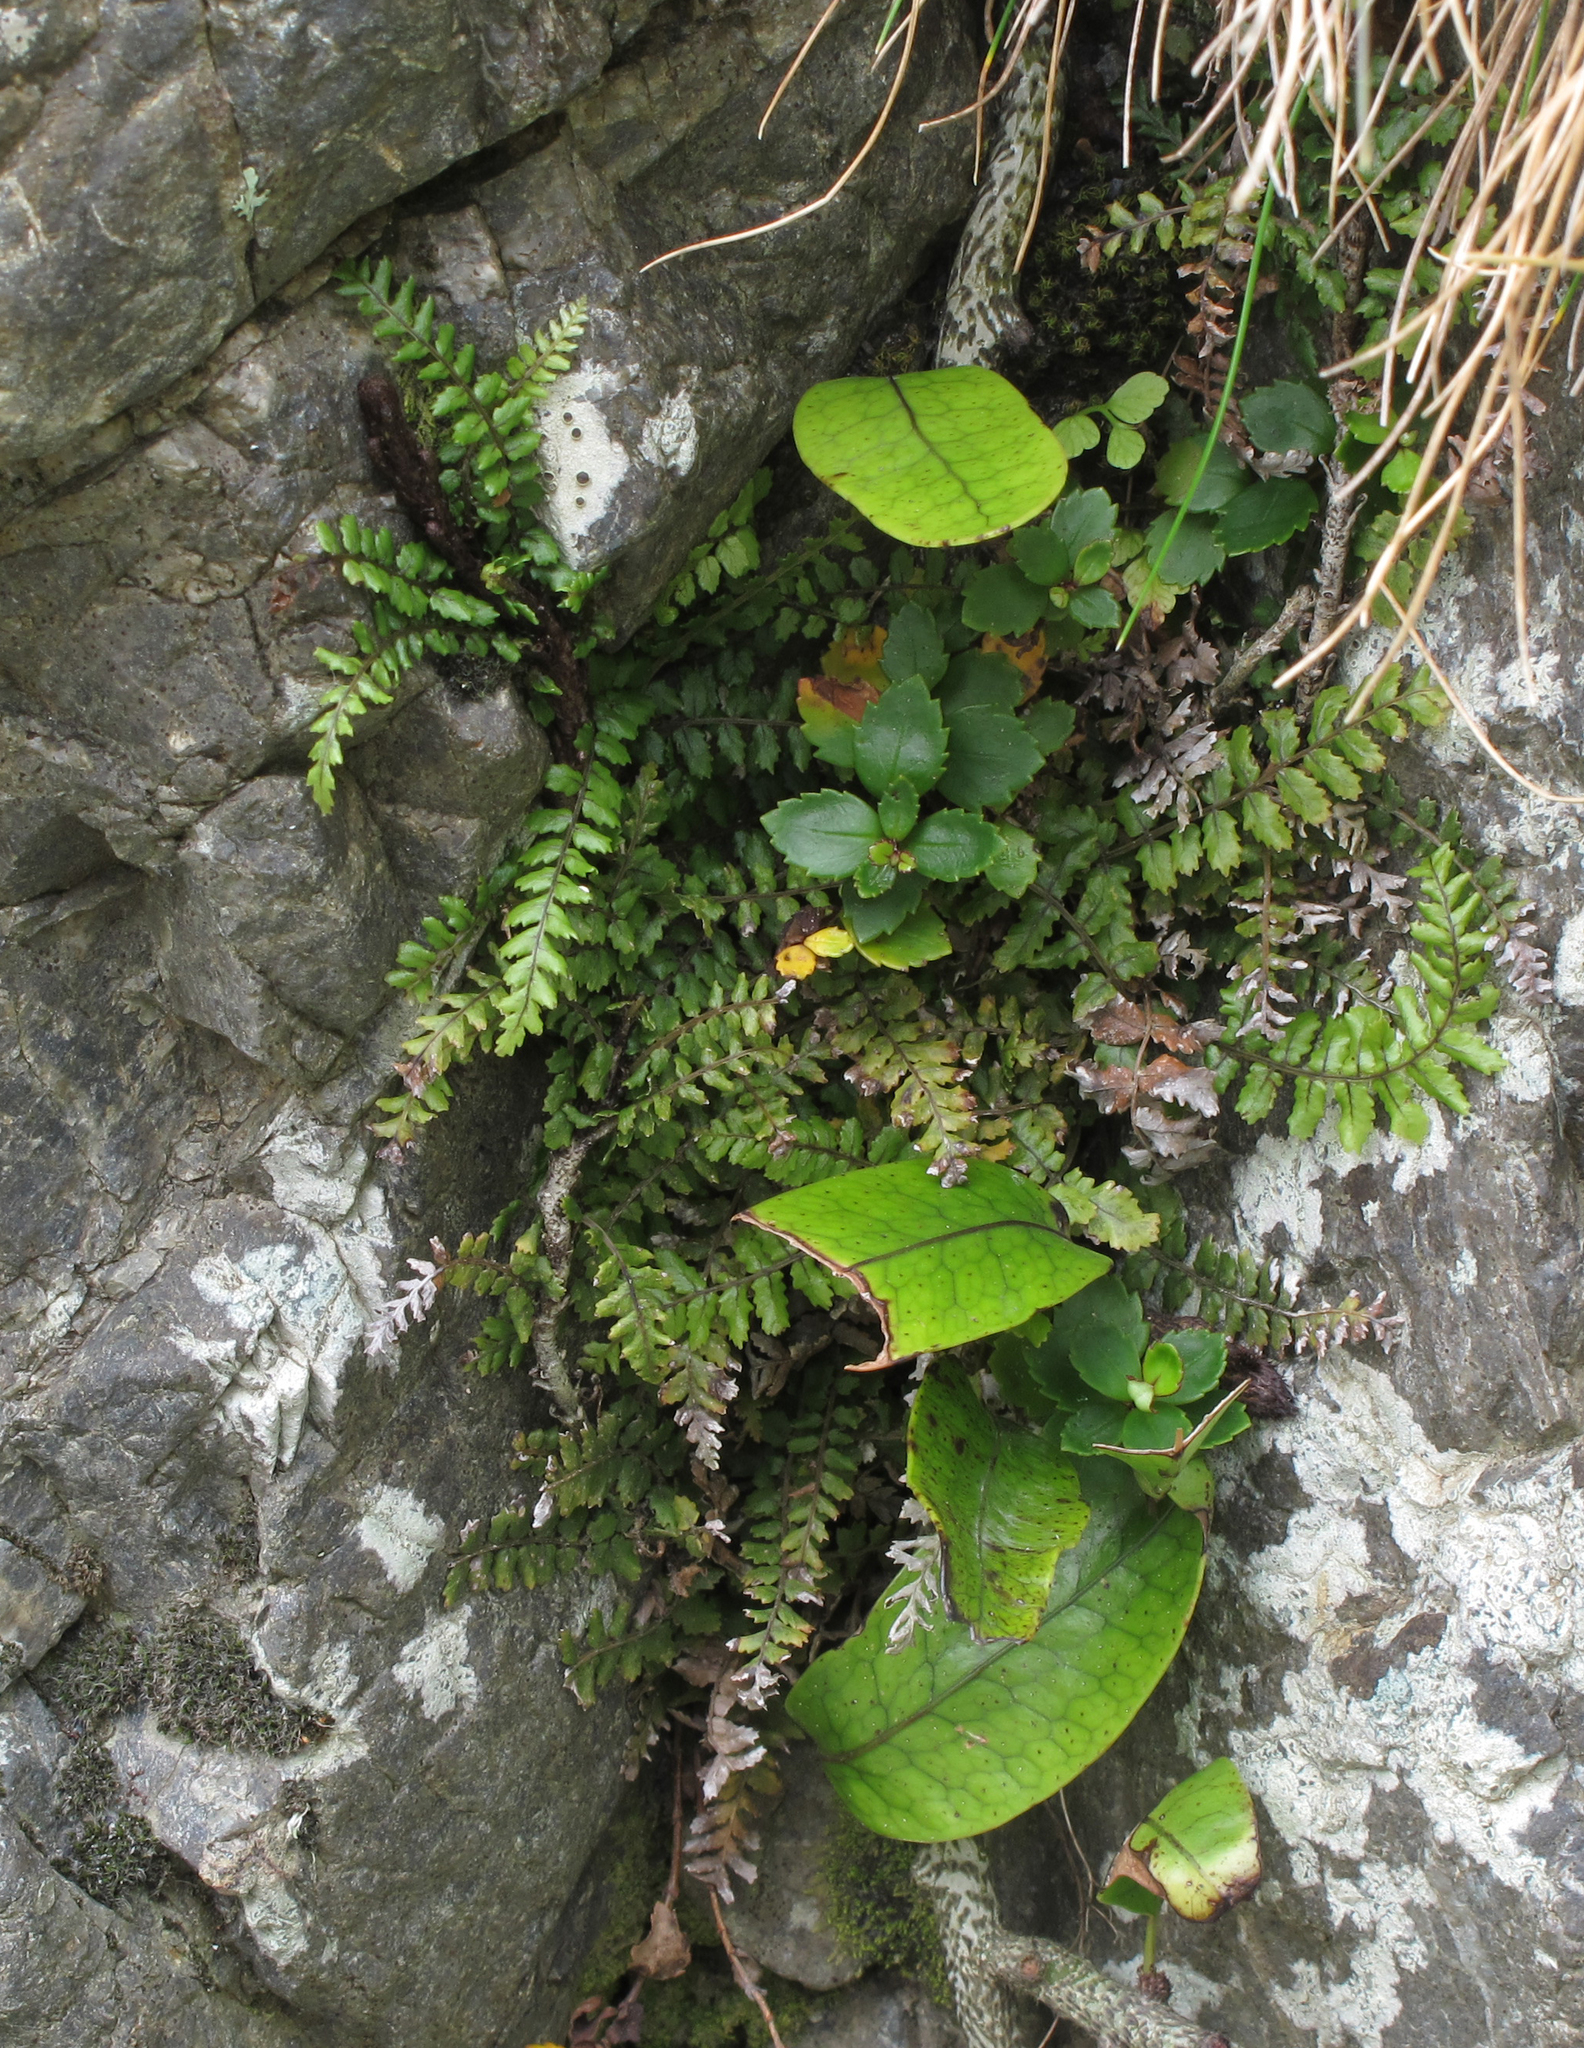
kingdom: Plantae
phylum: Tracheophyta
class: Polypodiopsida
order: Polypodiales
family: Blechnaceae
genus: Icarus
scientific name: Icarus filiformis
